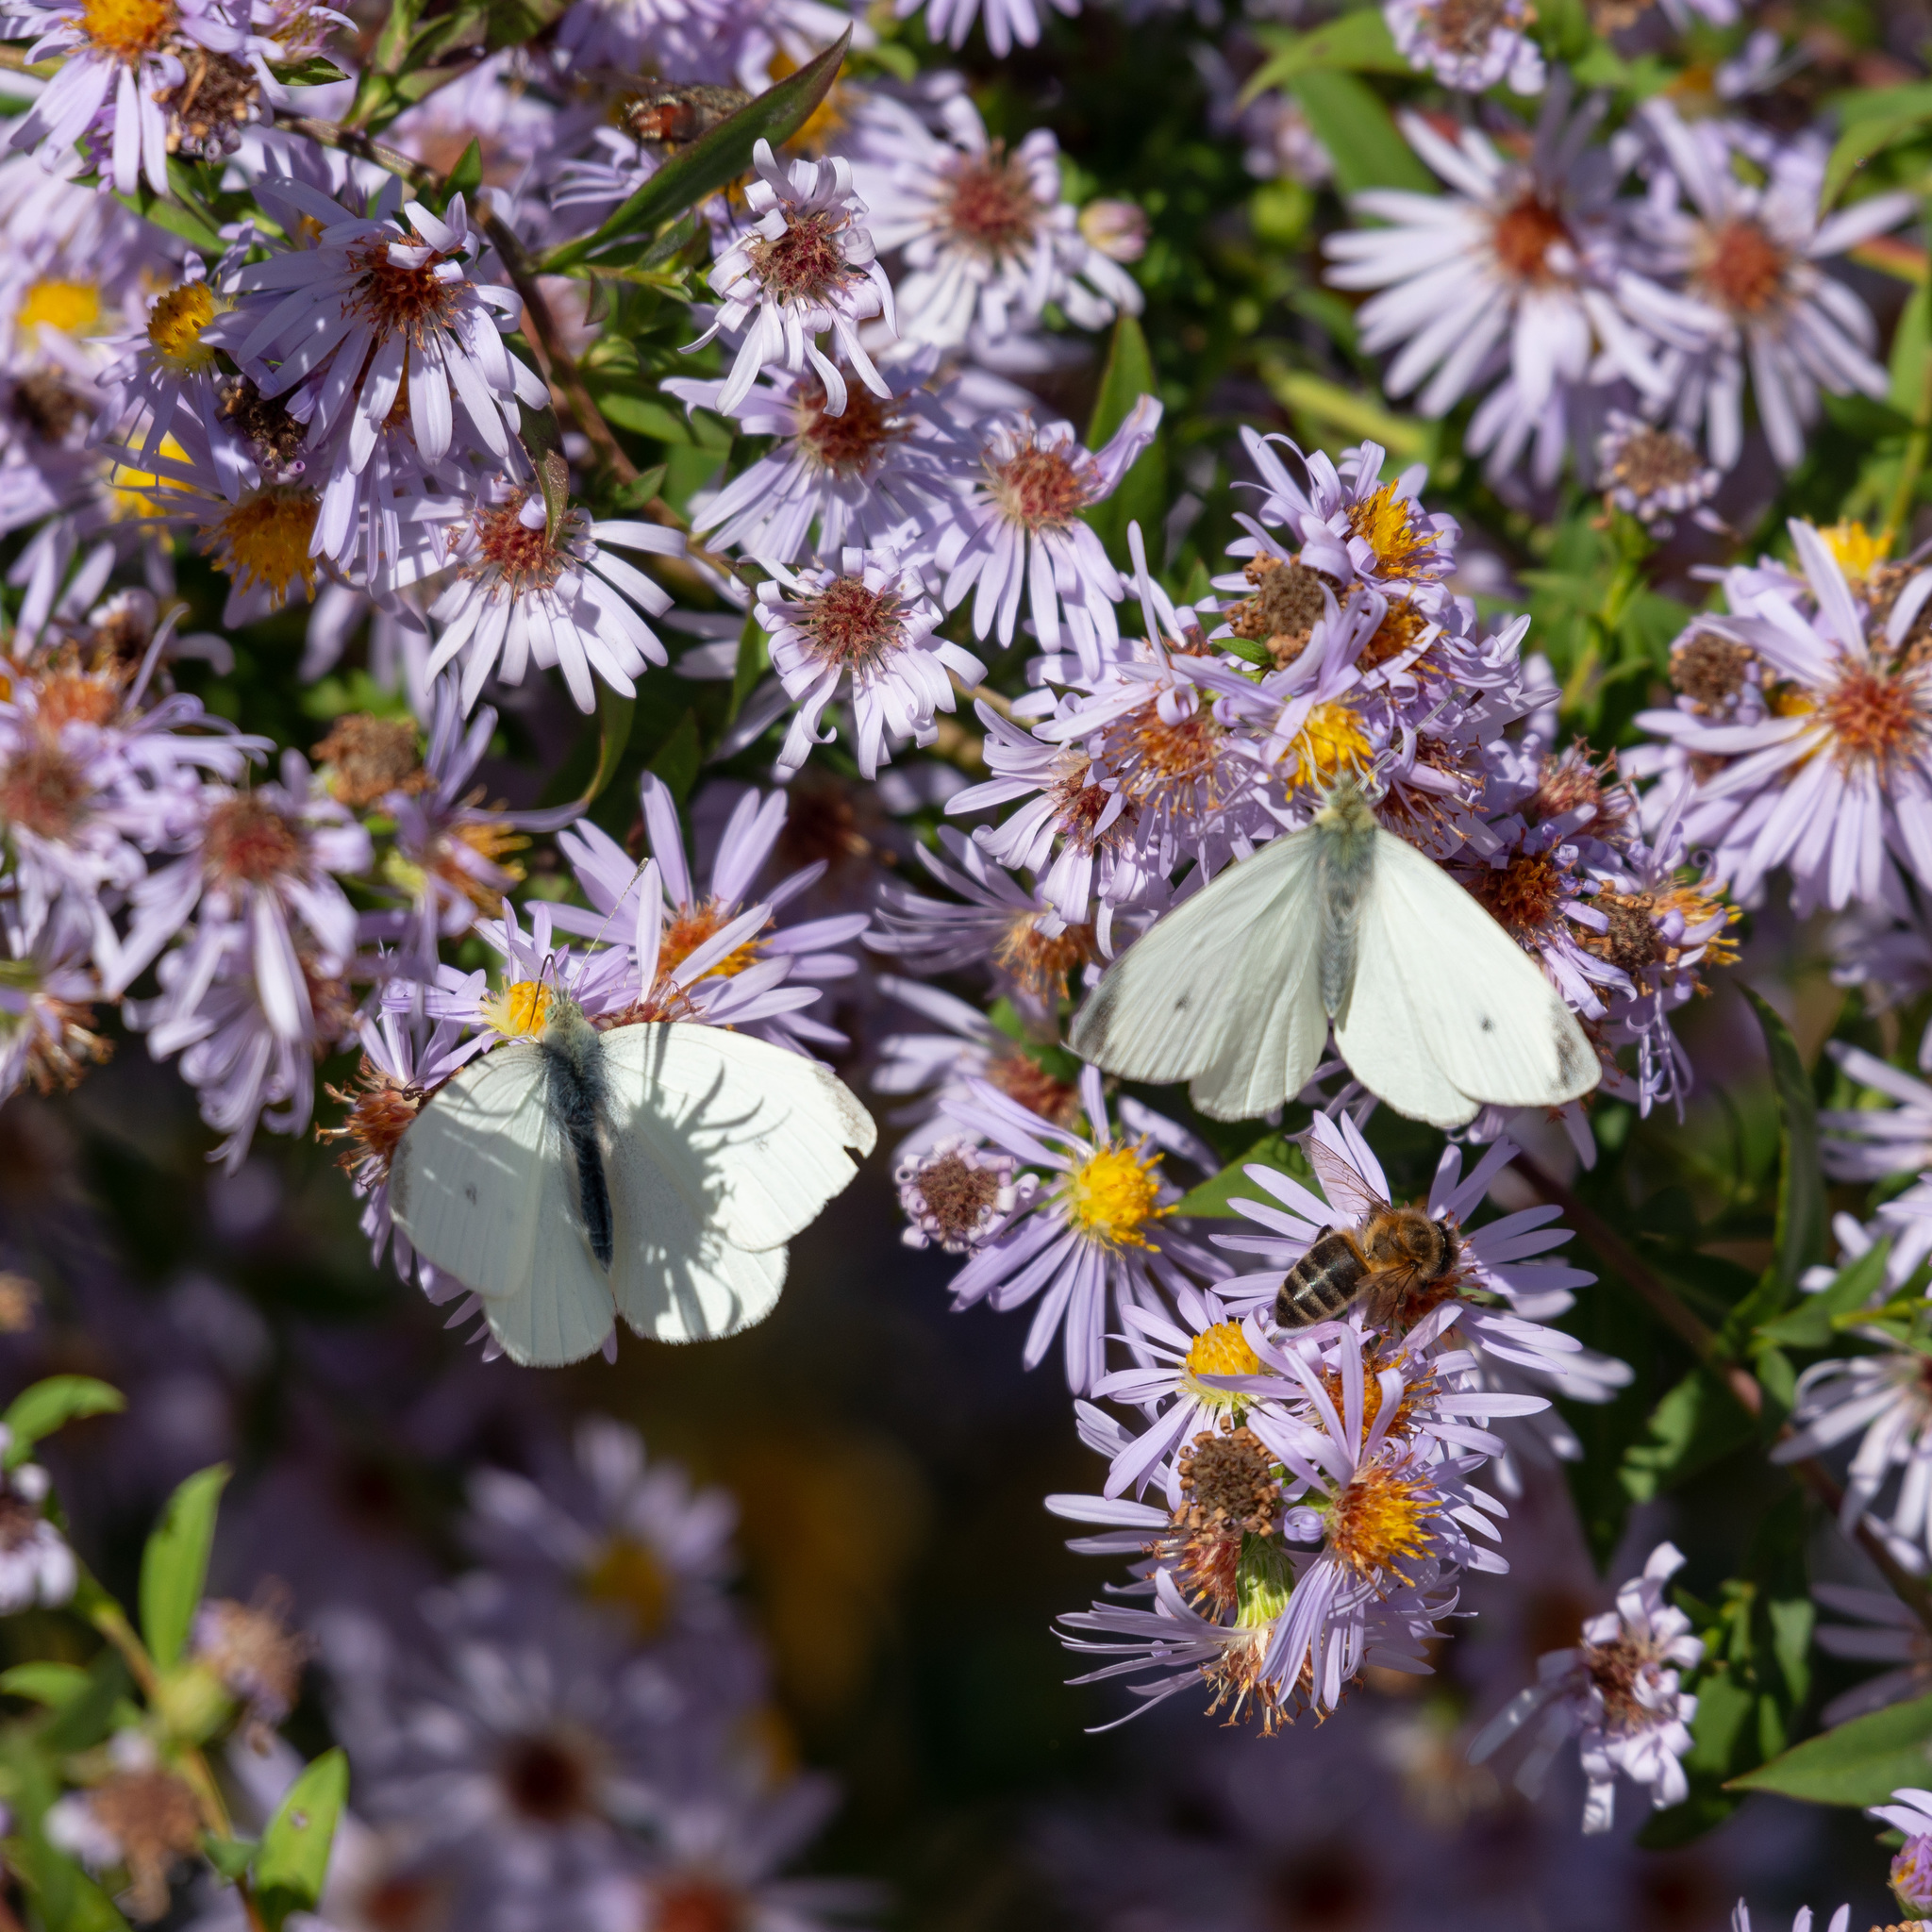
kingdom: Animalia
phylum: Arthropoda
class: Insecta
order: Lepidoptera
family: Pieridae
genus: Pieris
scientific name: Pieris rapae
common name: Small white
